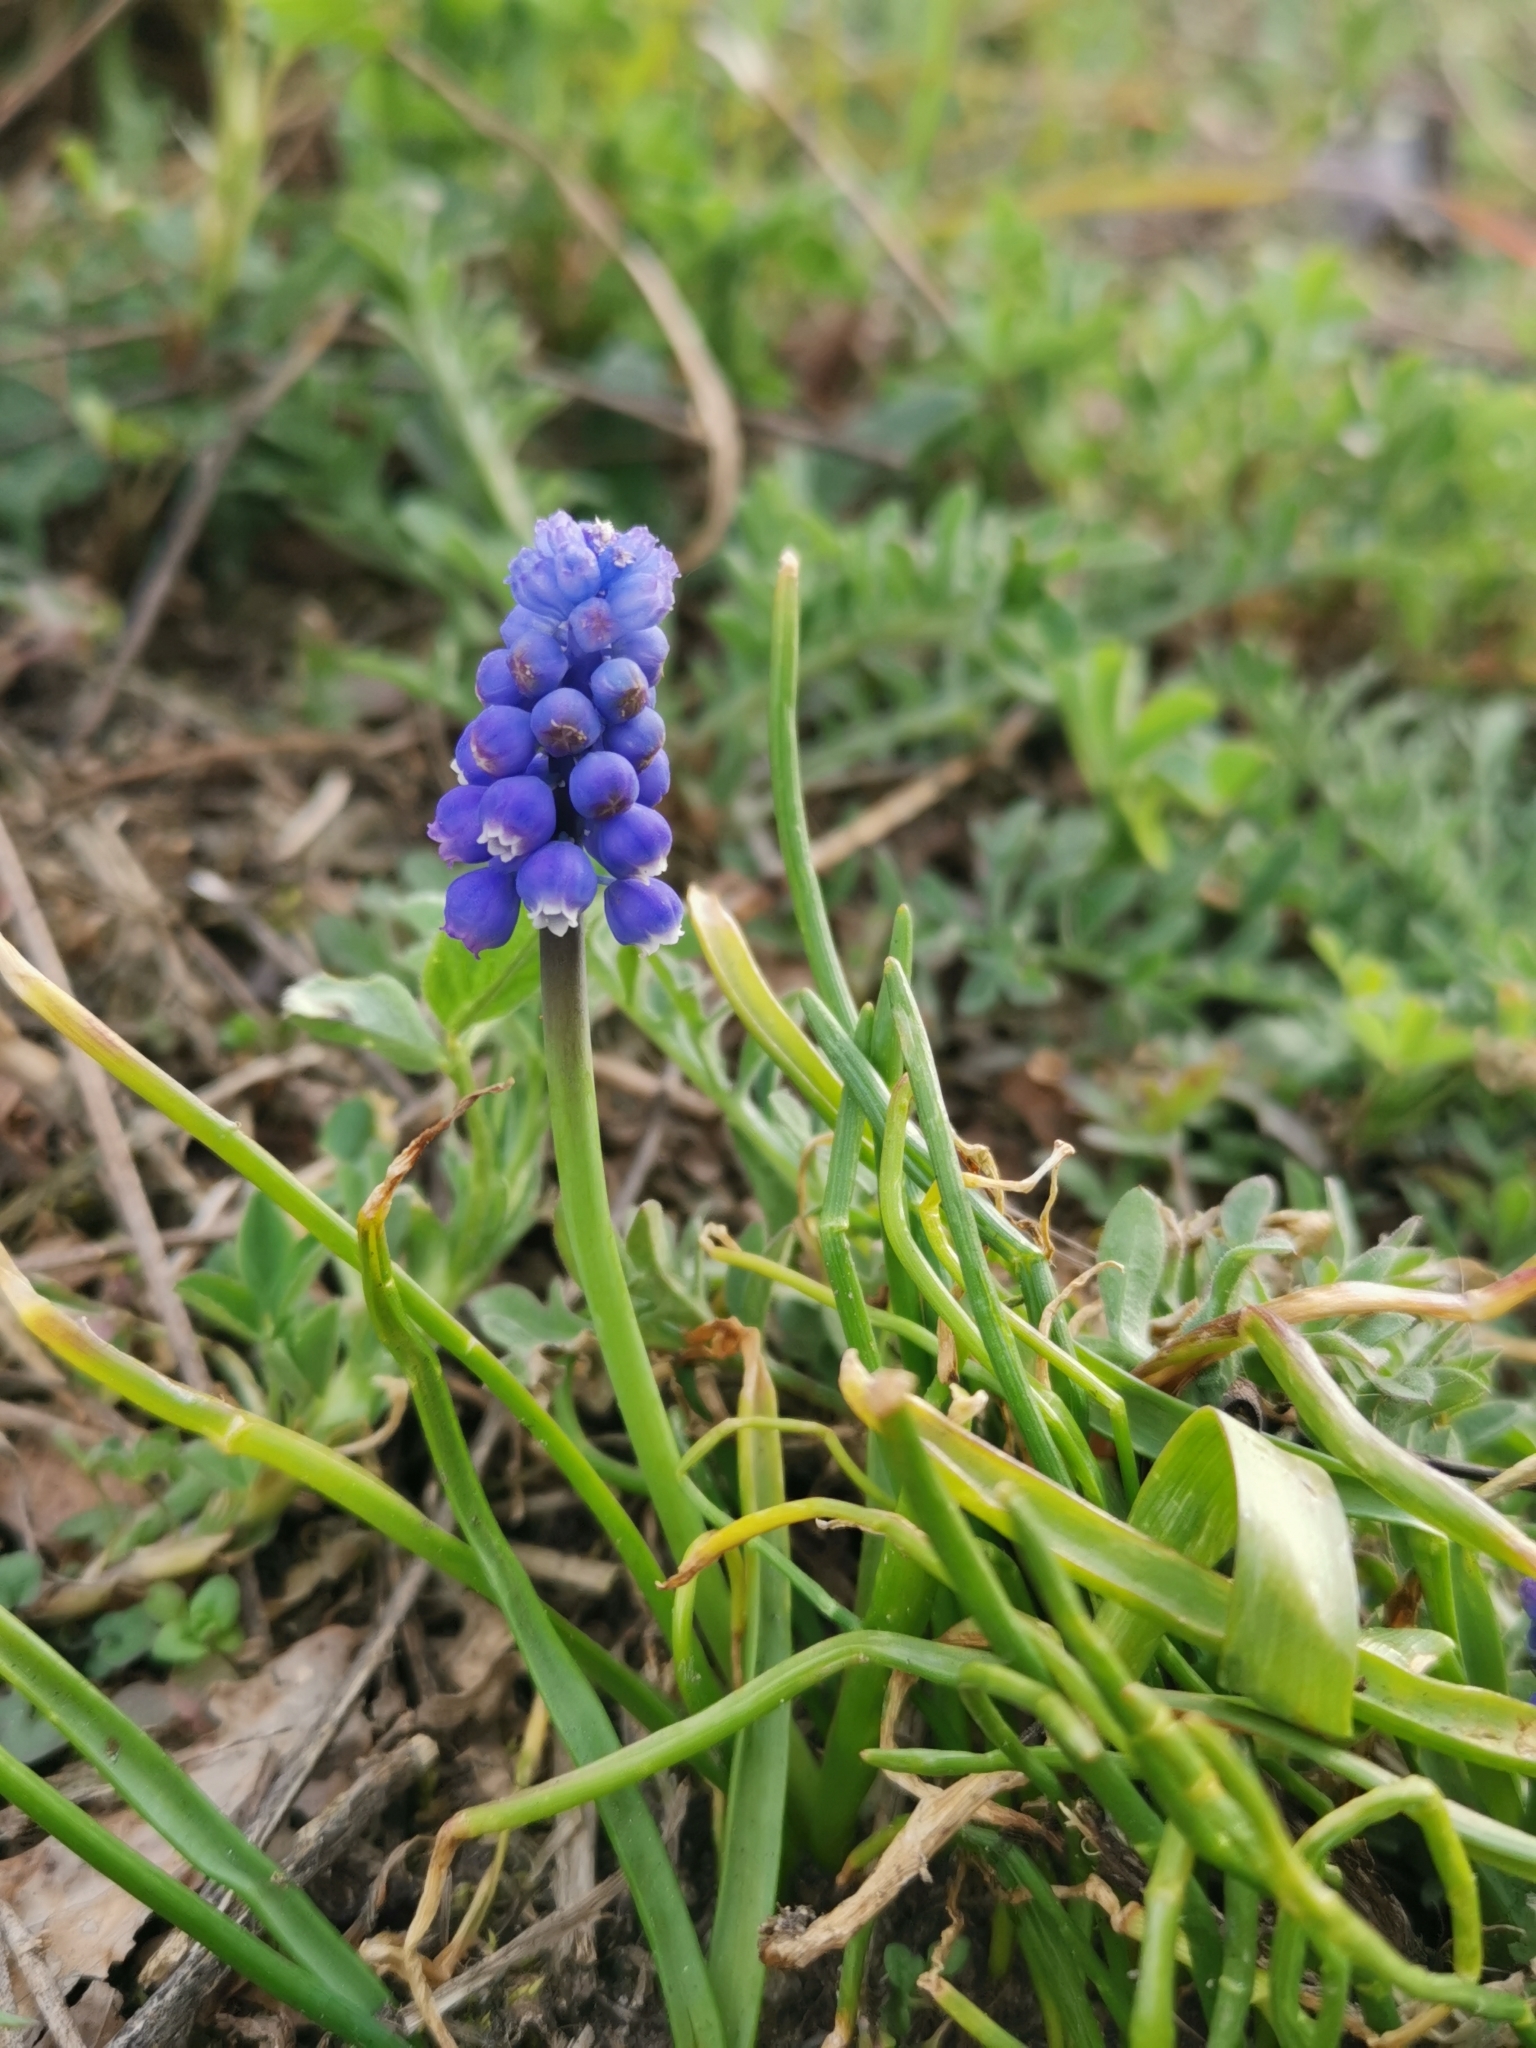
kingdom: Plantae
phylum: Tracheophyta
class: Liliopsida
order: Asparagales
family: Asparagaceae
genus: Muscari
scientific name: Muscari neglectum
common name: Grape-hyacinth
